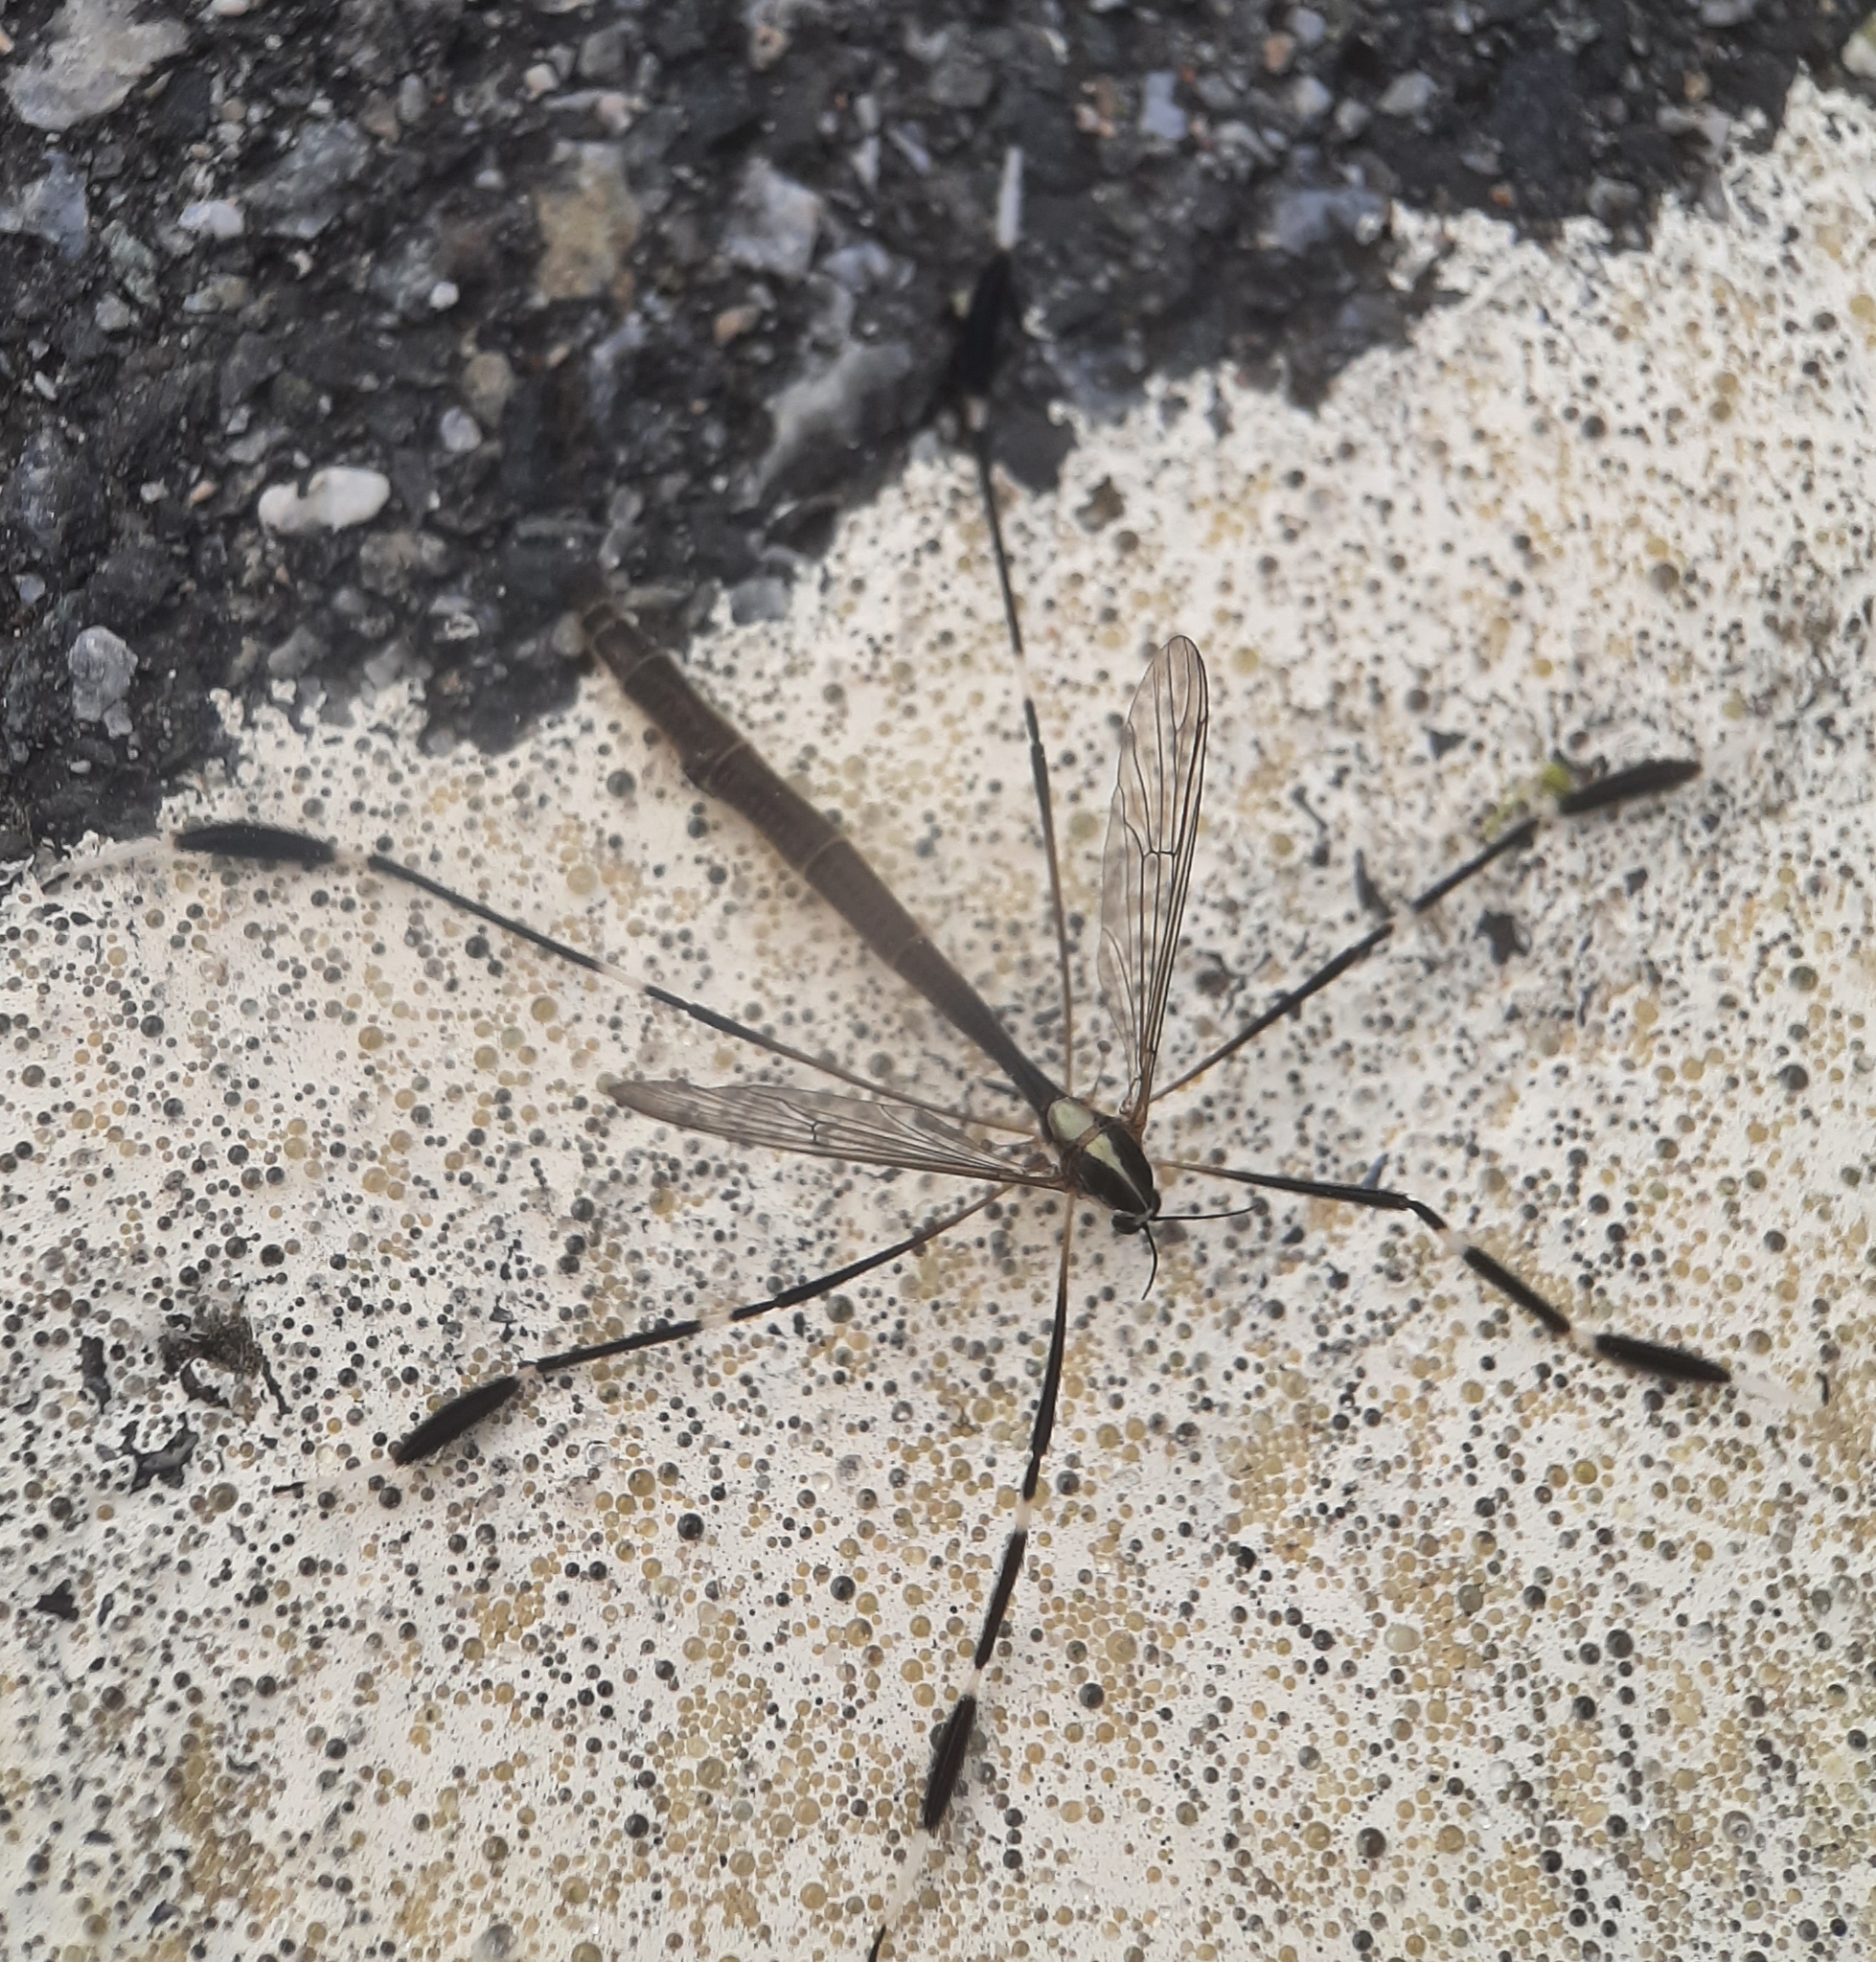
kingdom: Animalia
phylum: Arthropoda
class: Insecta
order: Diptera
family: Ptychopteridae
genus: Bittacomorpha
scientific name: Bittacomorpha clavipes
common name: Eastern phantom crane fly
